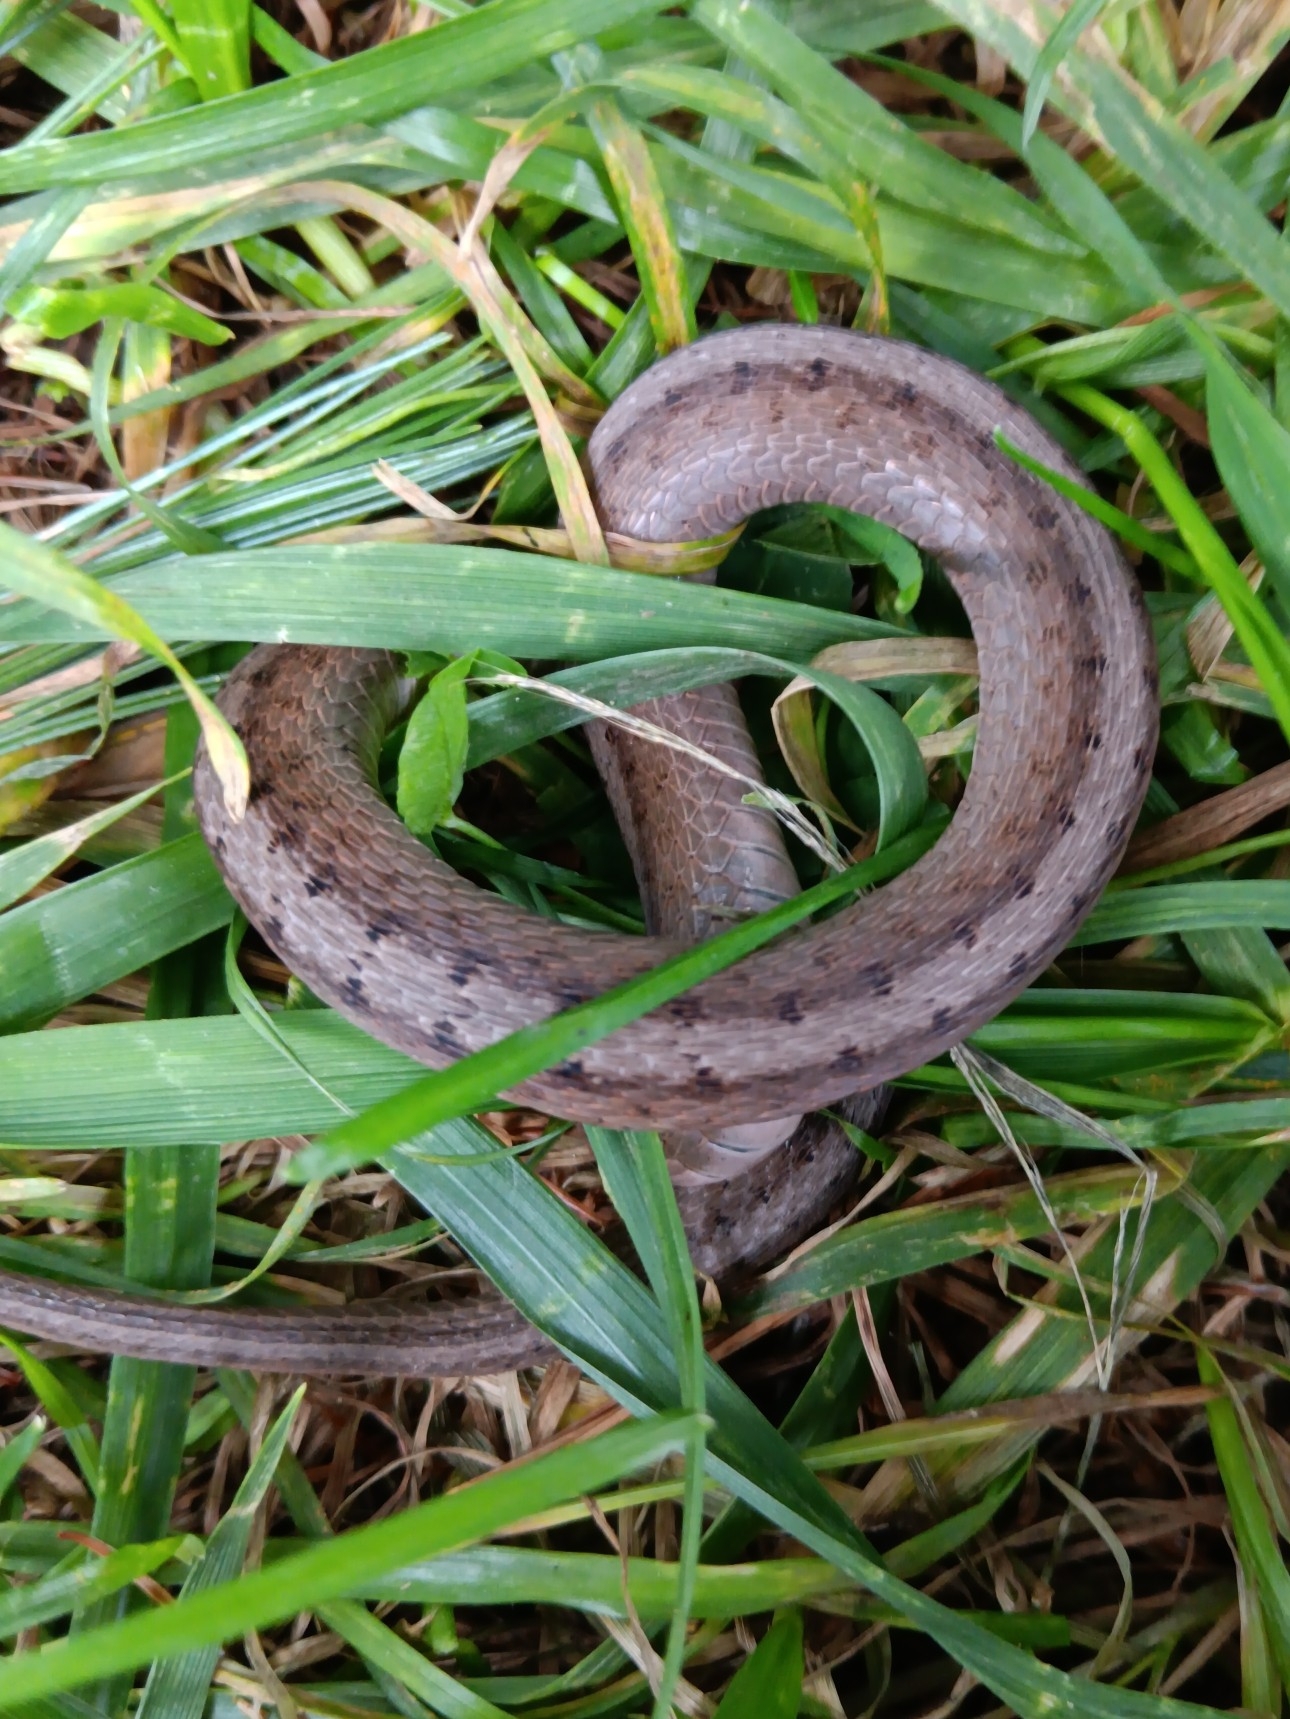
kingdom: Animalia
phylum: Chordata
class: Squamata
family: Colubridae
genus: Storeria
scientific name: Storeria dekayi
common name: (dekay’s) brown snake
